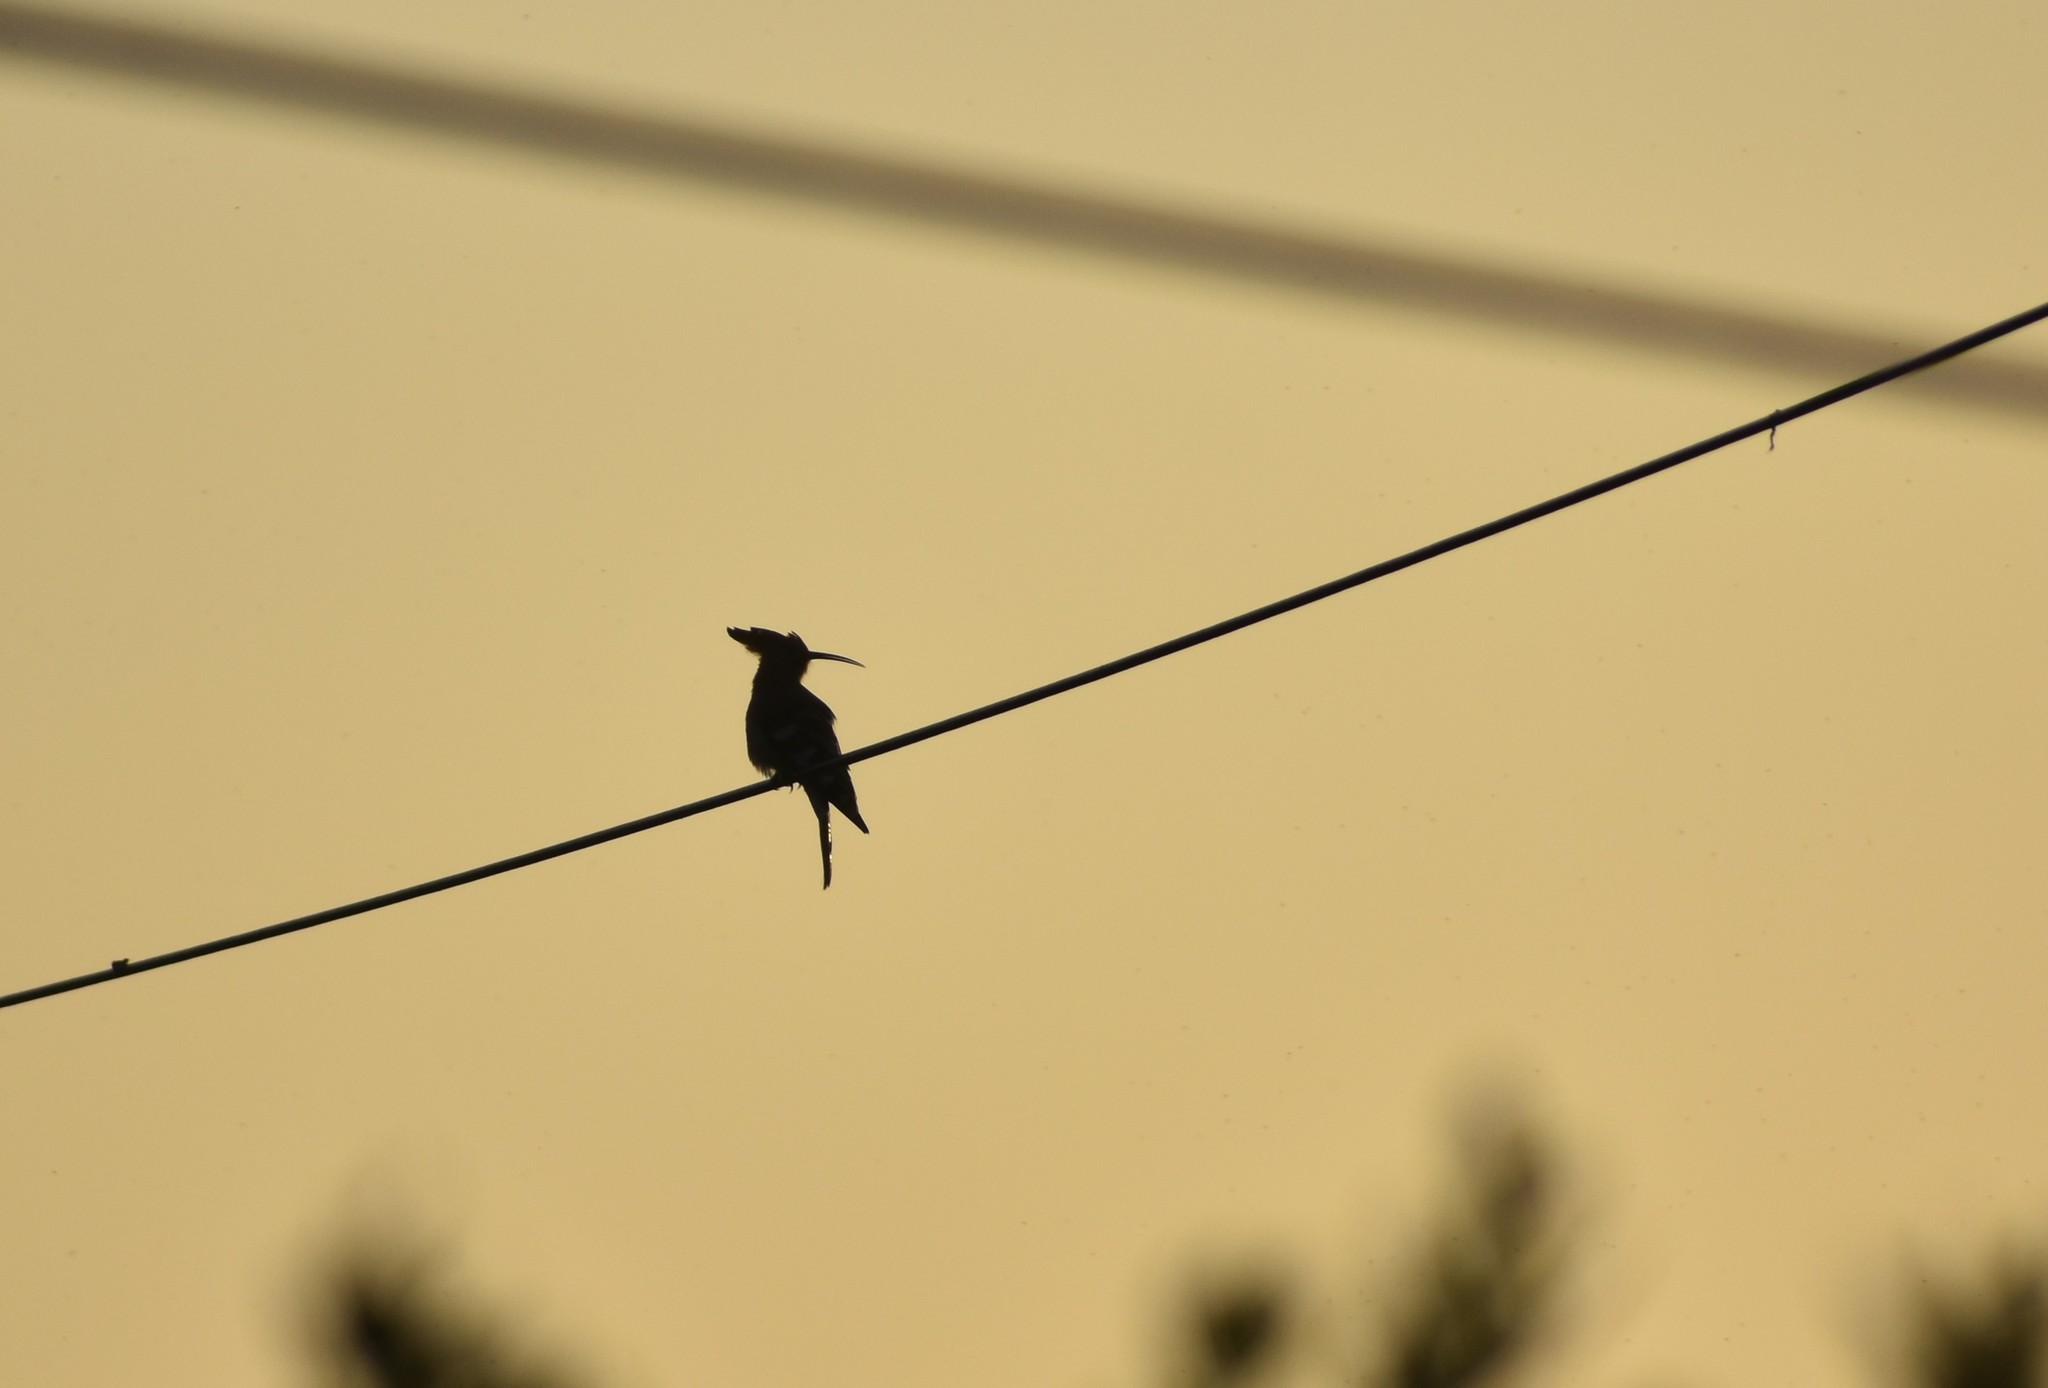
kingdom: Animalia
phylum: Chordata
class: Aves
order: Bucerotiformes
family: Upupidae
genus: Upupa
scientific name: Upupa africana
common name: African hoopoe
